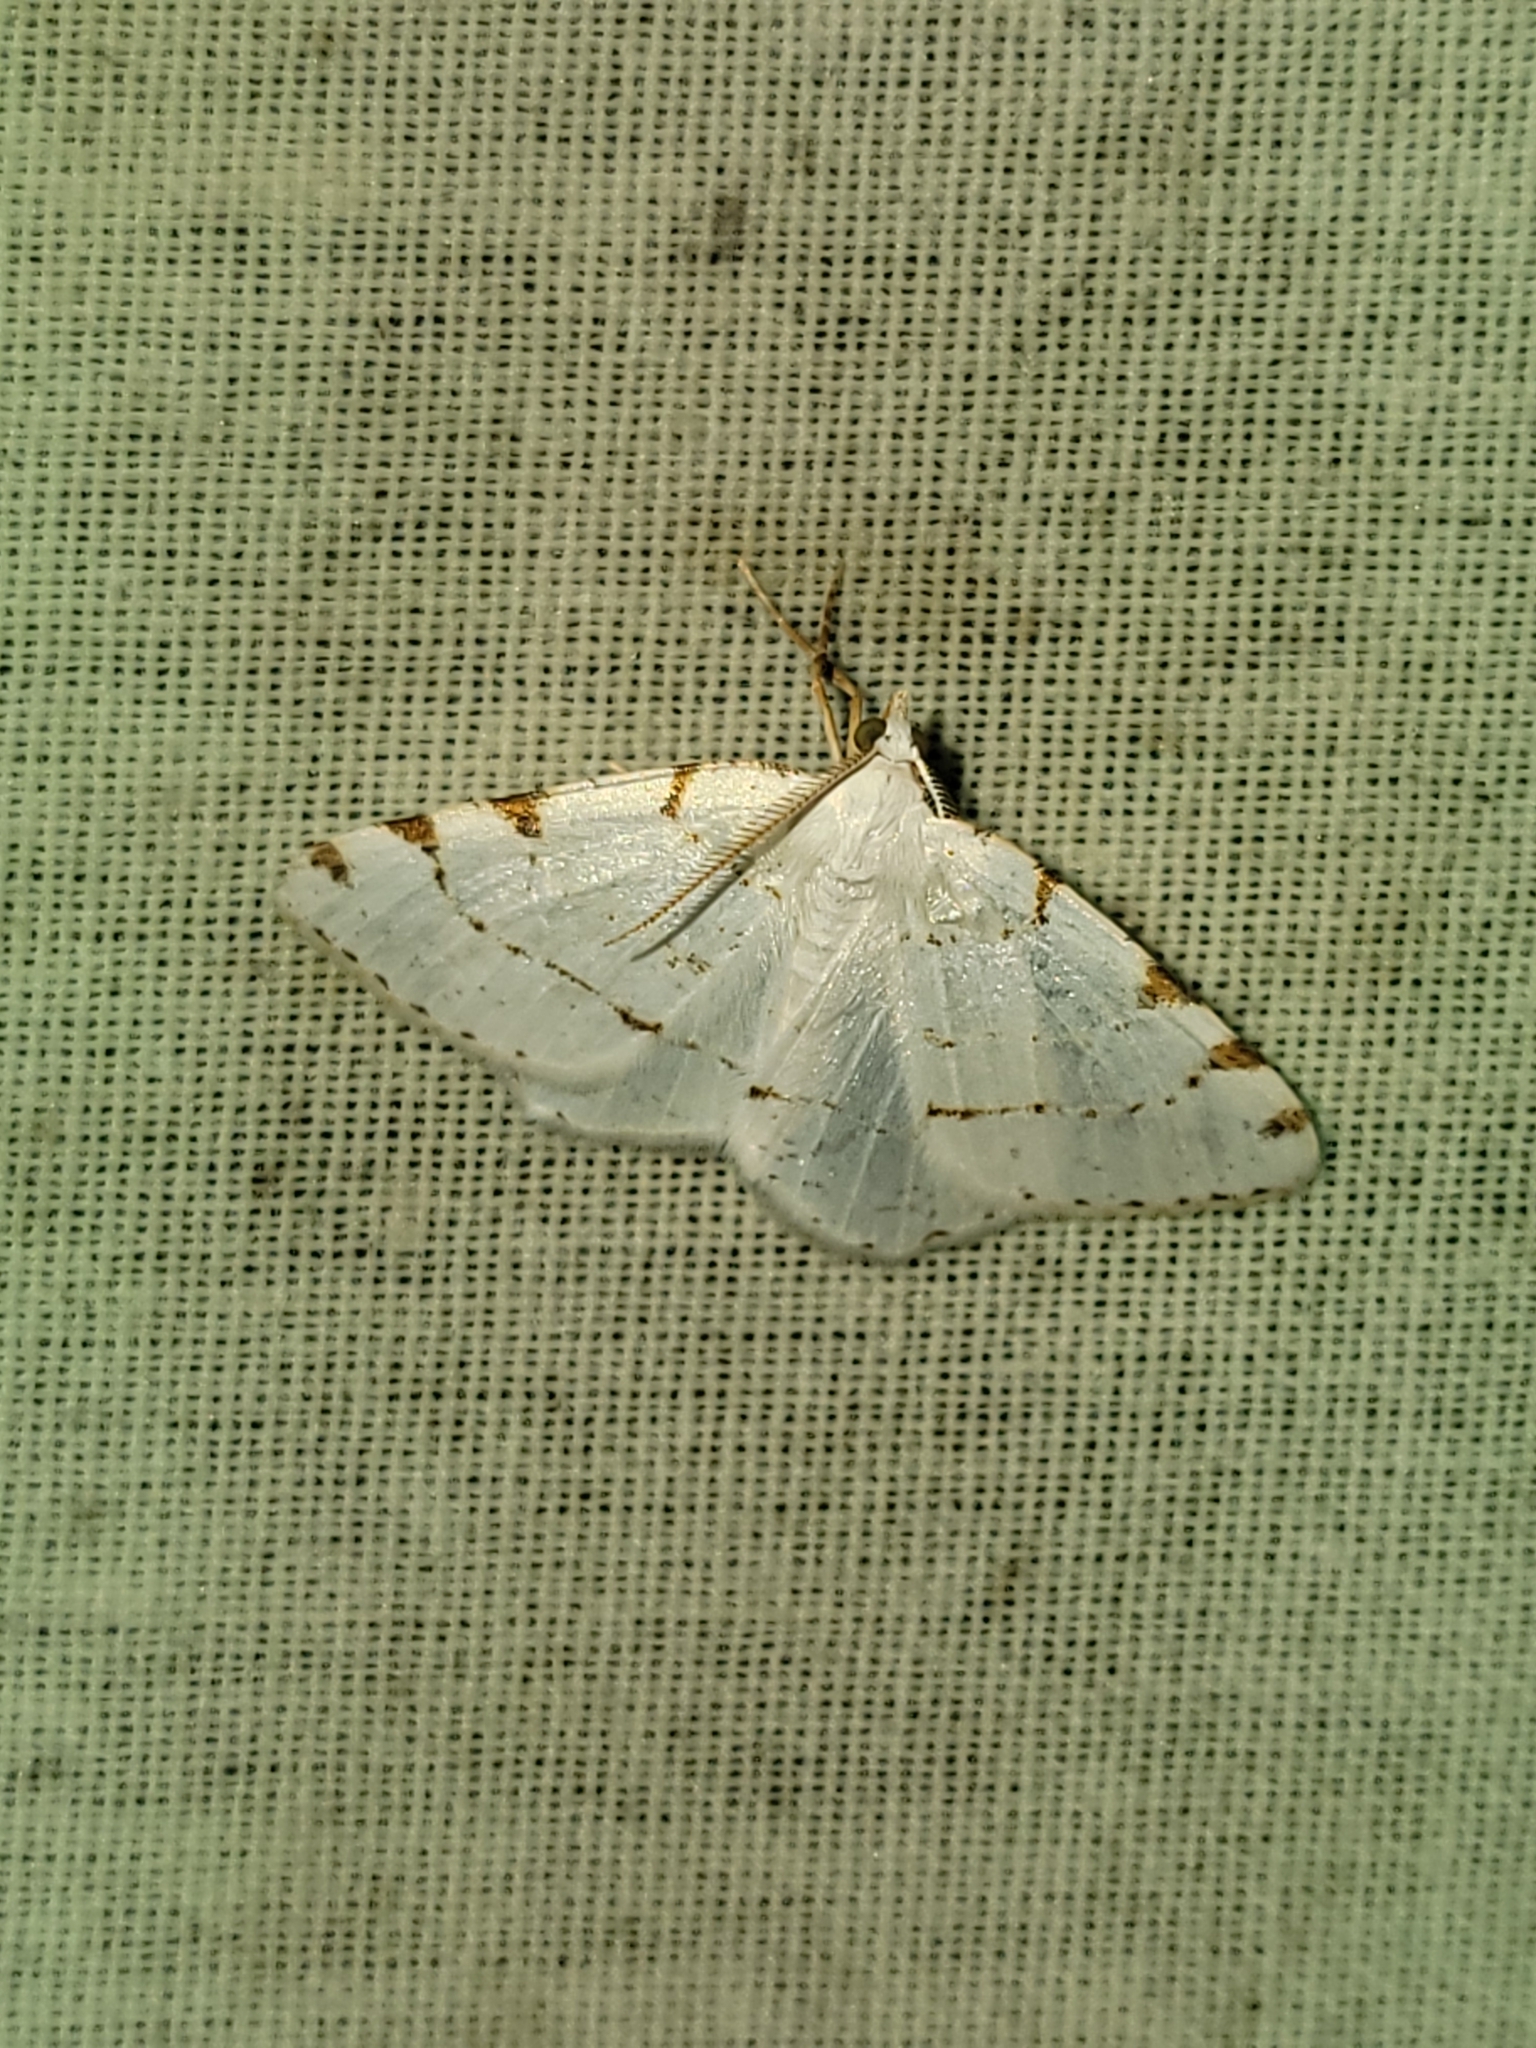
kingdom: Animalia
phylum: Arthropoda
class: Insecta
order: Lepidoptera
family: Geometridae
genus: Macaria
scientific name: Macaria pustularia
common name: Lesser maple spanworm moth
